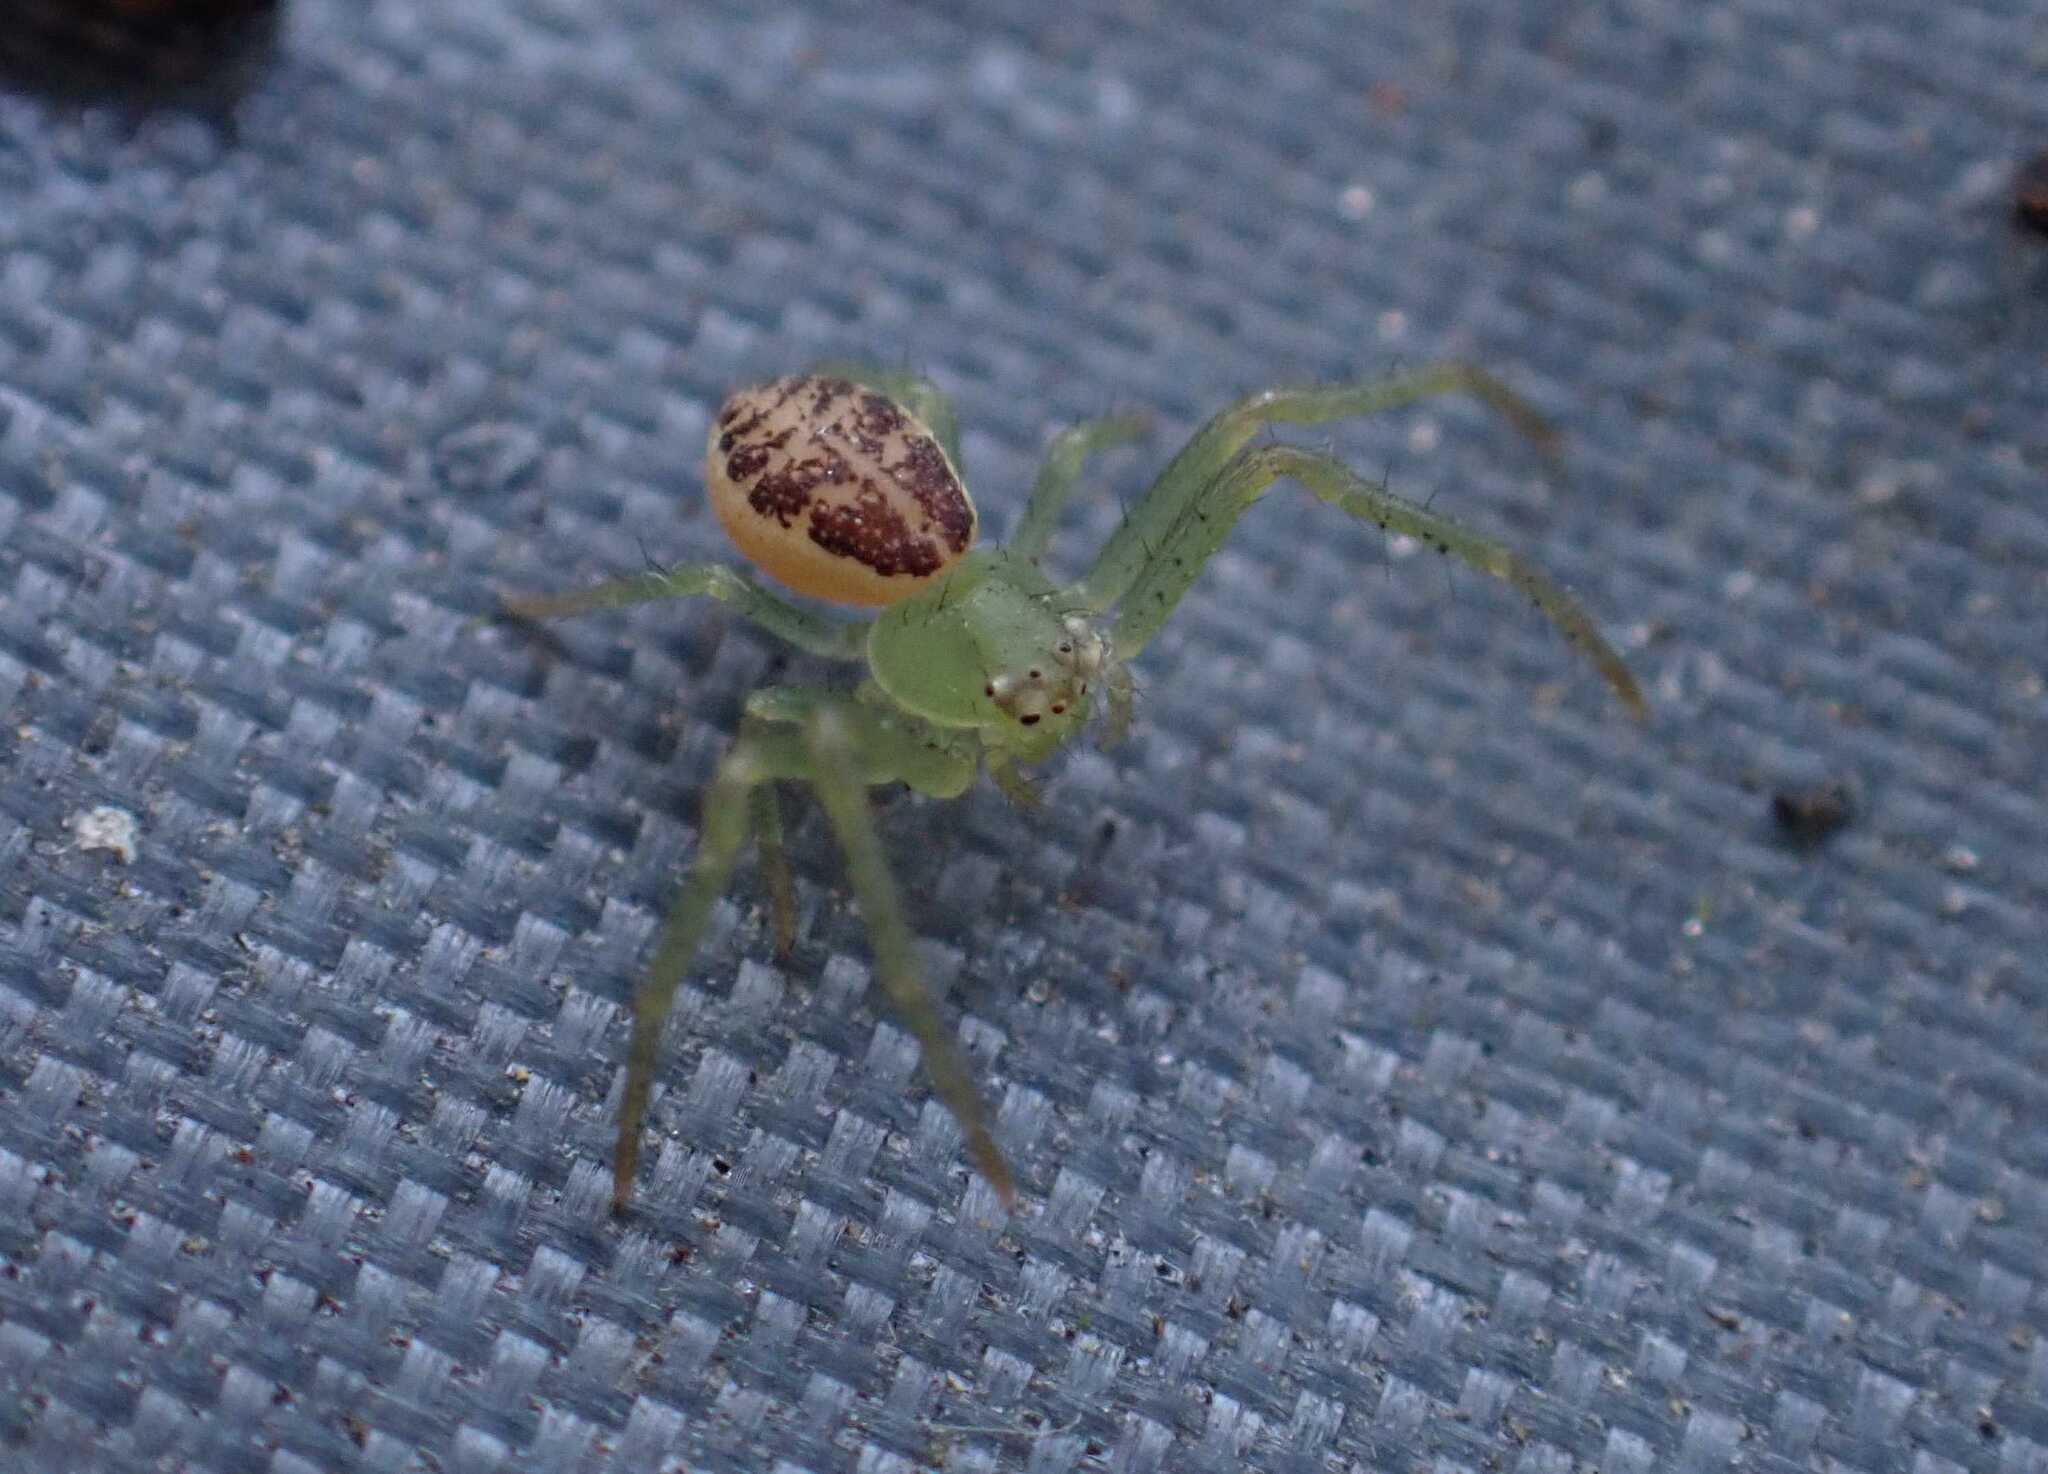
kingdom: Animalia
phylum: Arthropoda
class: Arachnida
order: Araneae
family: Thomisidae
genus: Diaea
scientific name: Diaea dorsata
